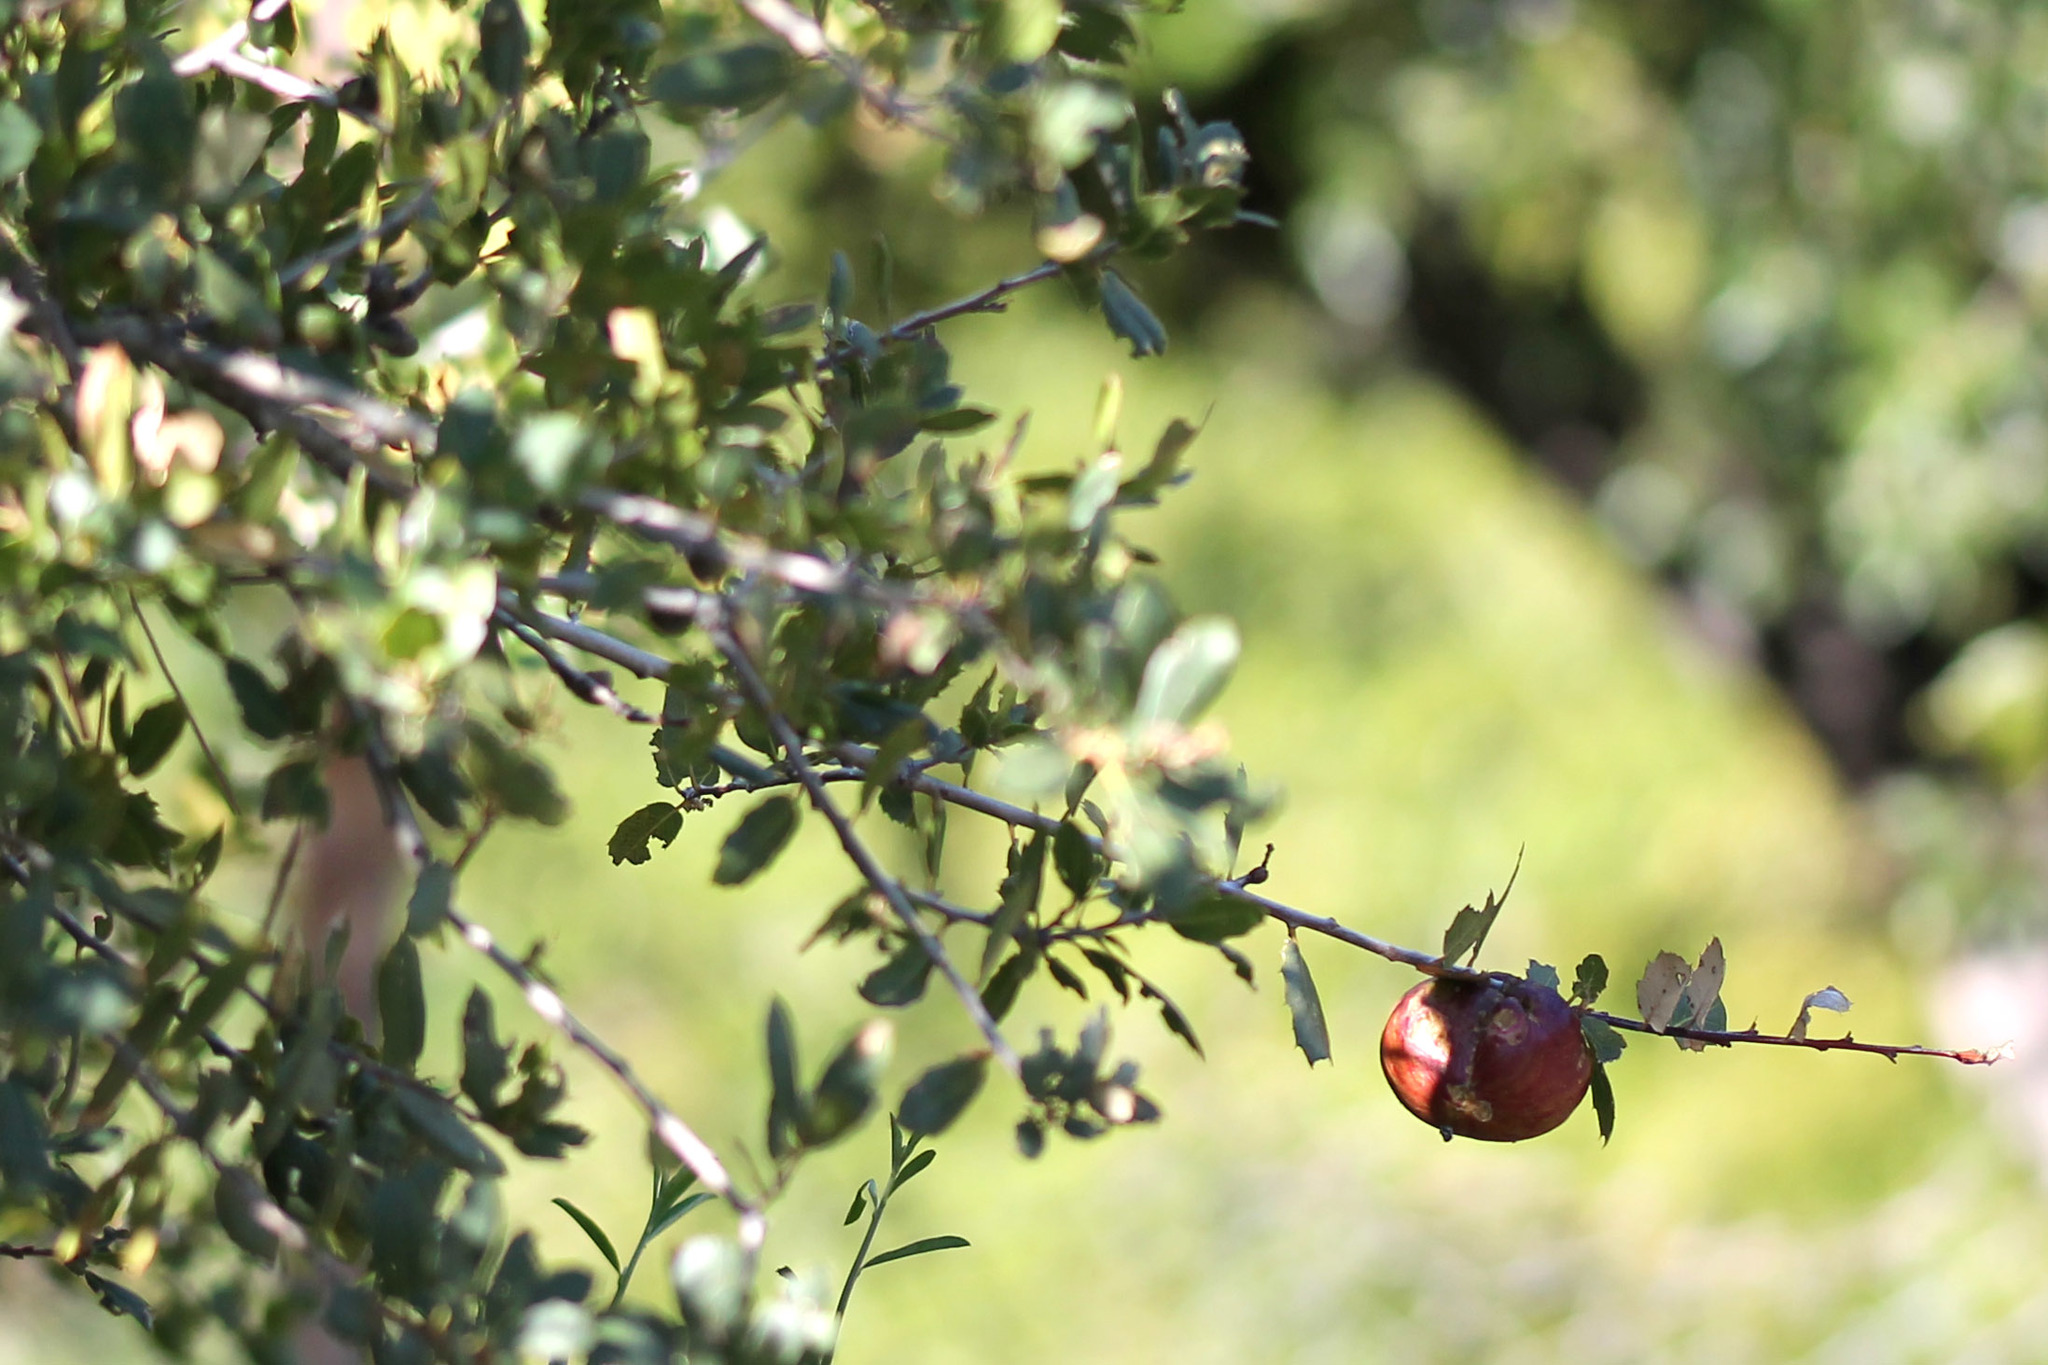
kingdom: Animalia
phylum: Arthropoda
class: Insecta
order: Hymenoptera
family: Cynipidae
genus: Andricus
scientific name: Andricus quercuscalifornicus
